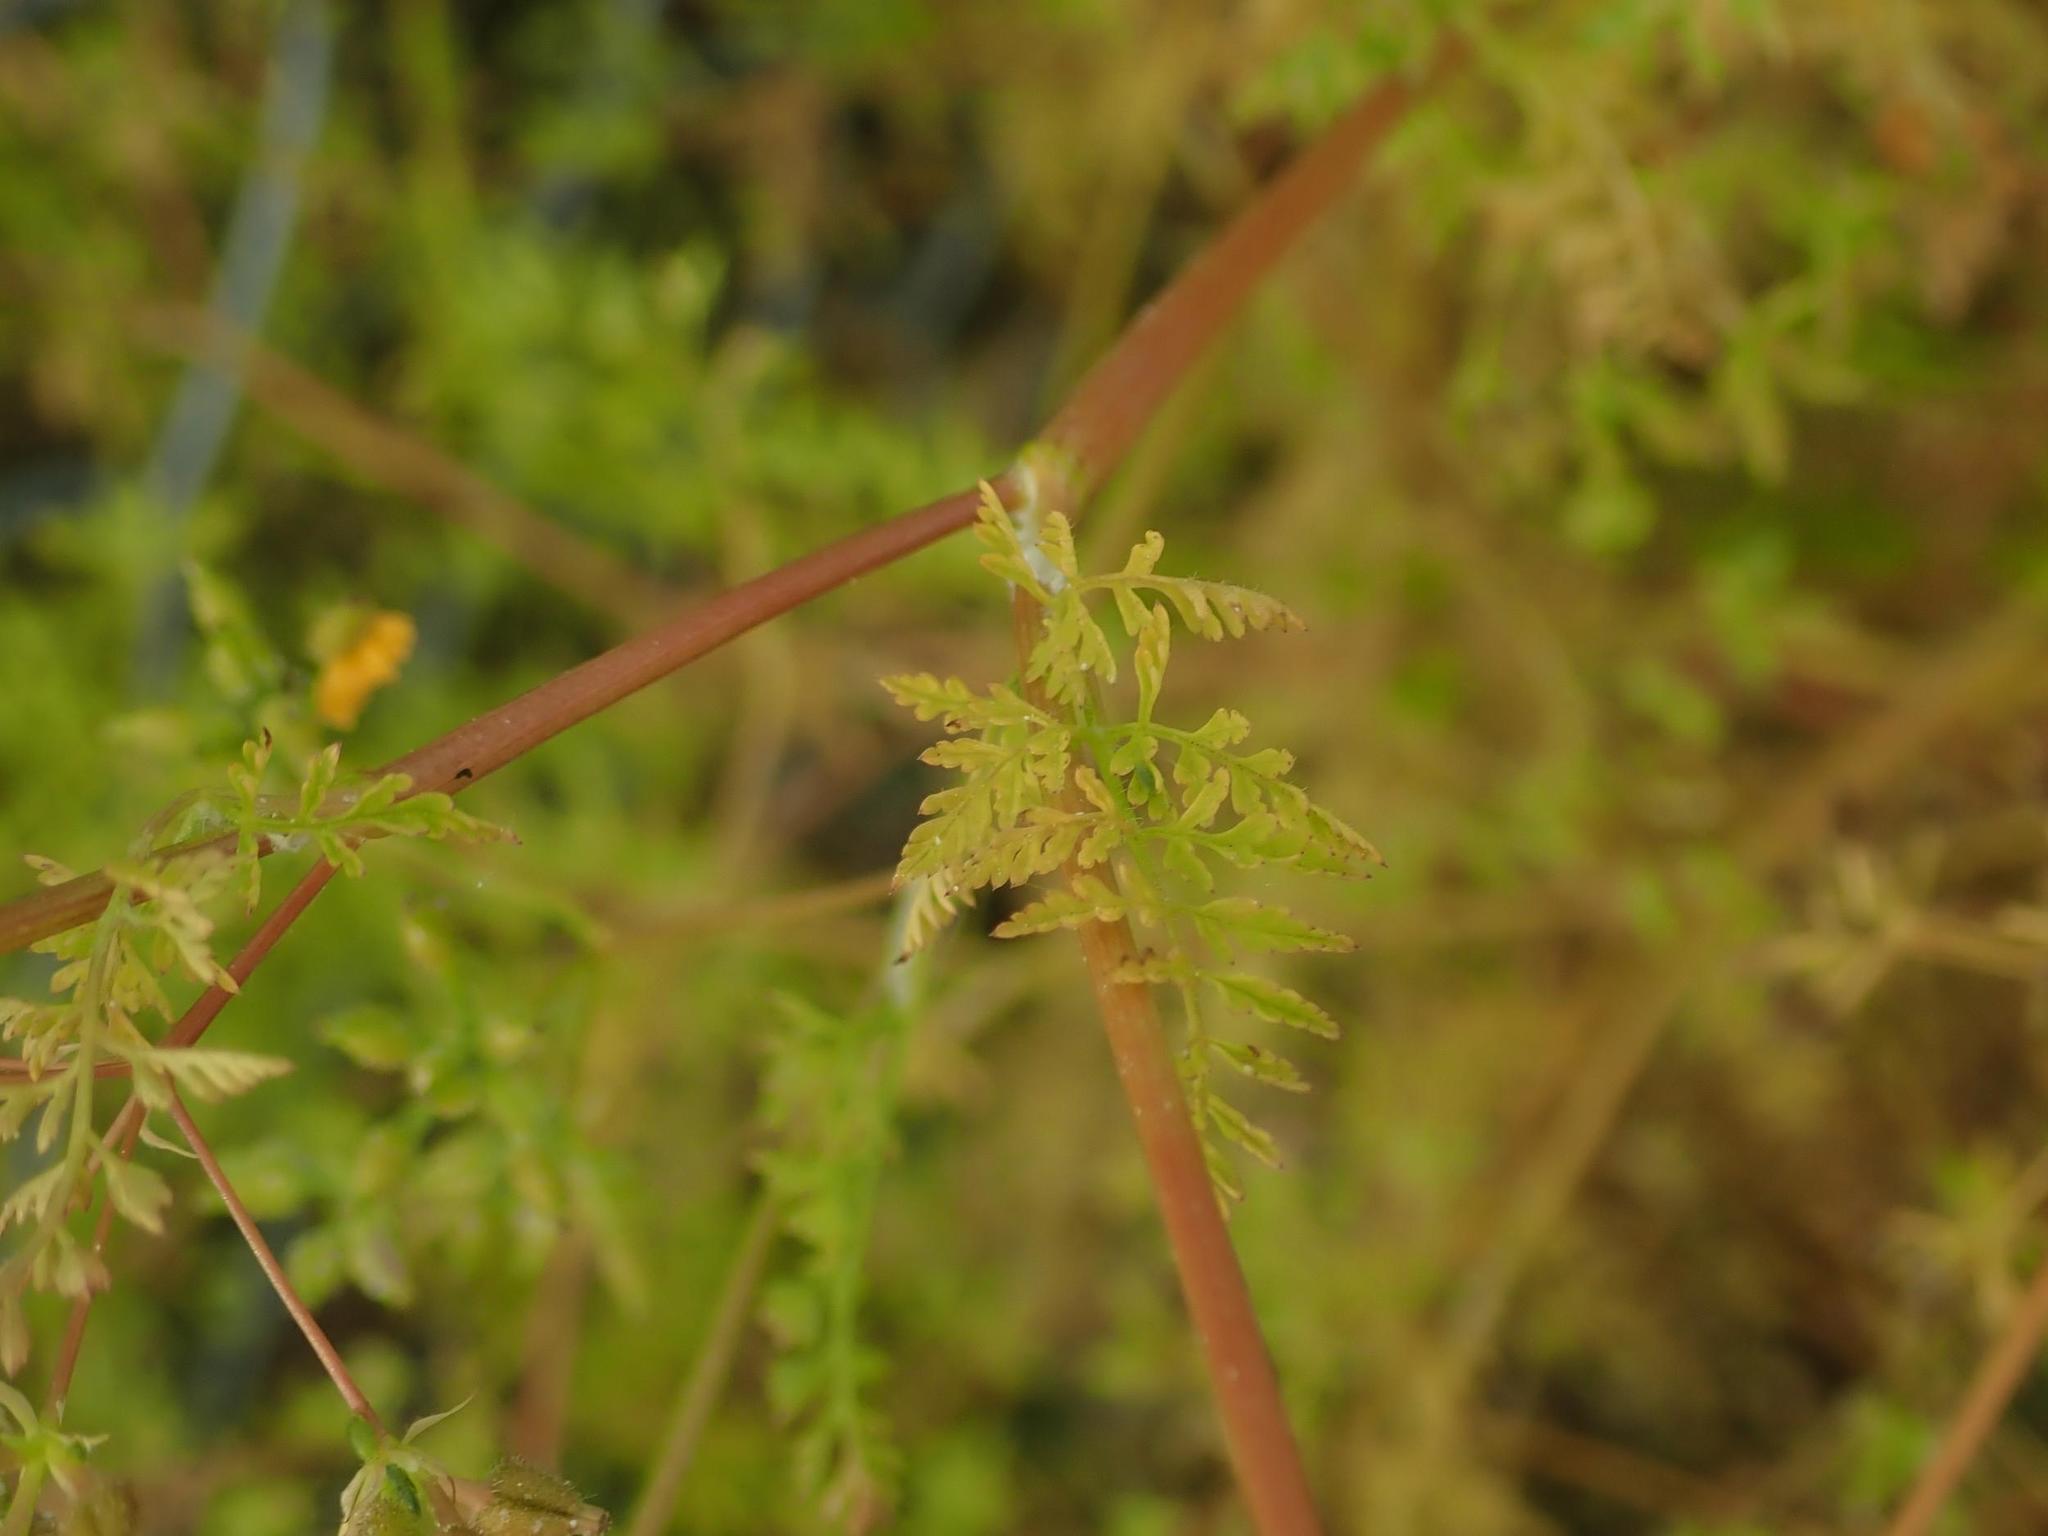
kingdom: Plantae
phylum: Tracheophyta
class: Magnoliopsida
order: Apiales
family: Apiaceae
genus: Anthriscus
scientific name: Anthriscus caucalis
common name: Bur chervil
